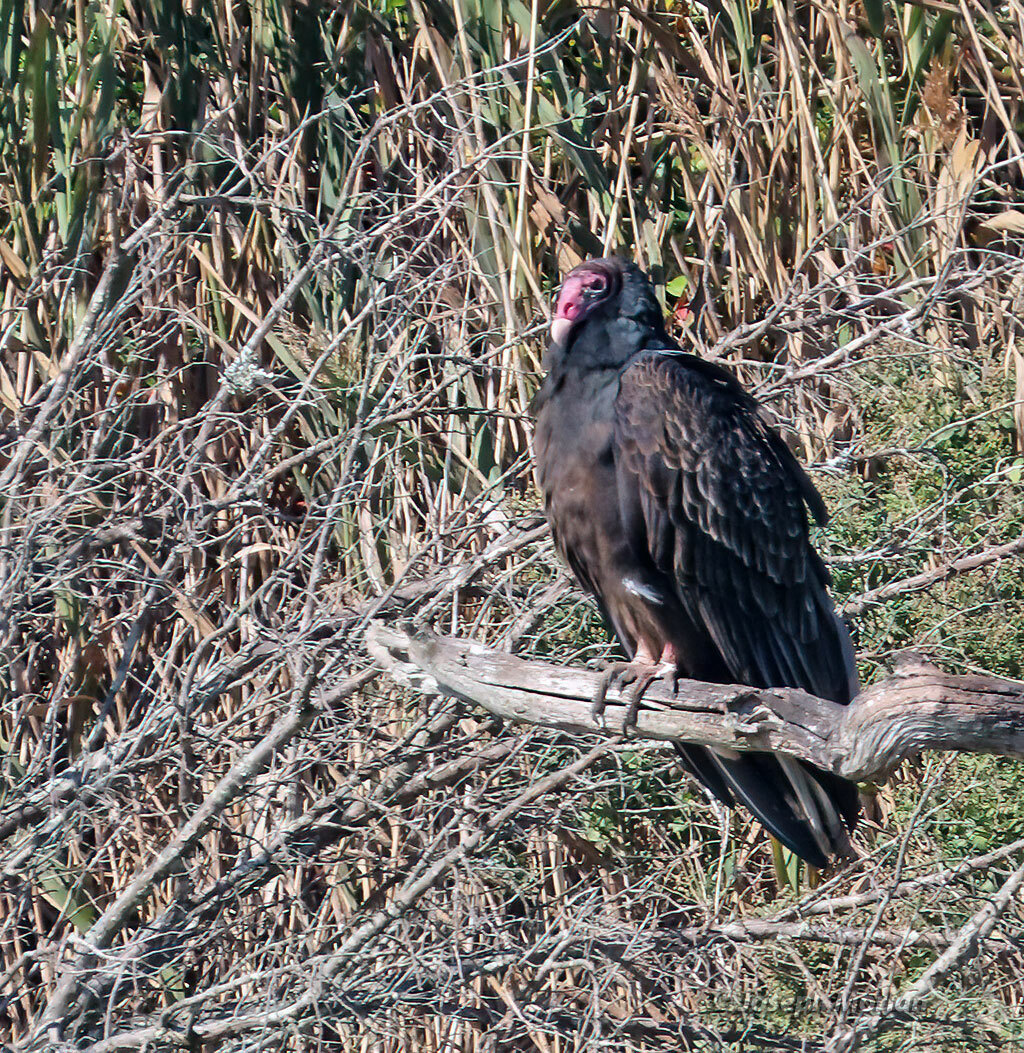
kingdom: Animalia
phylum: Chordata
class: Aves
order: Accipitriformes
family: Cathartidae
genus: Cathartes
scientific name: Cathartes aura
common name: Turkey vulture
